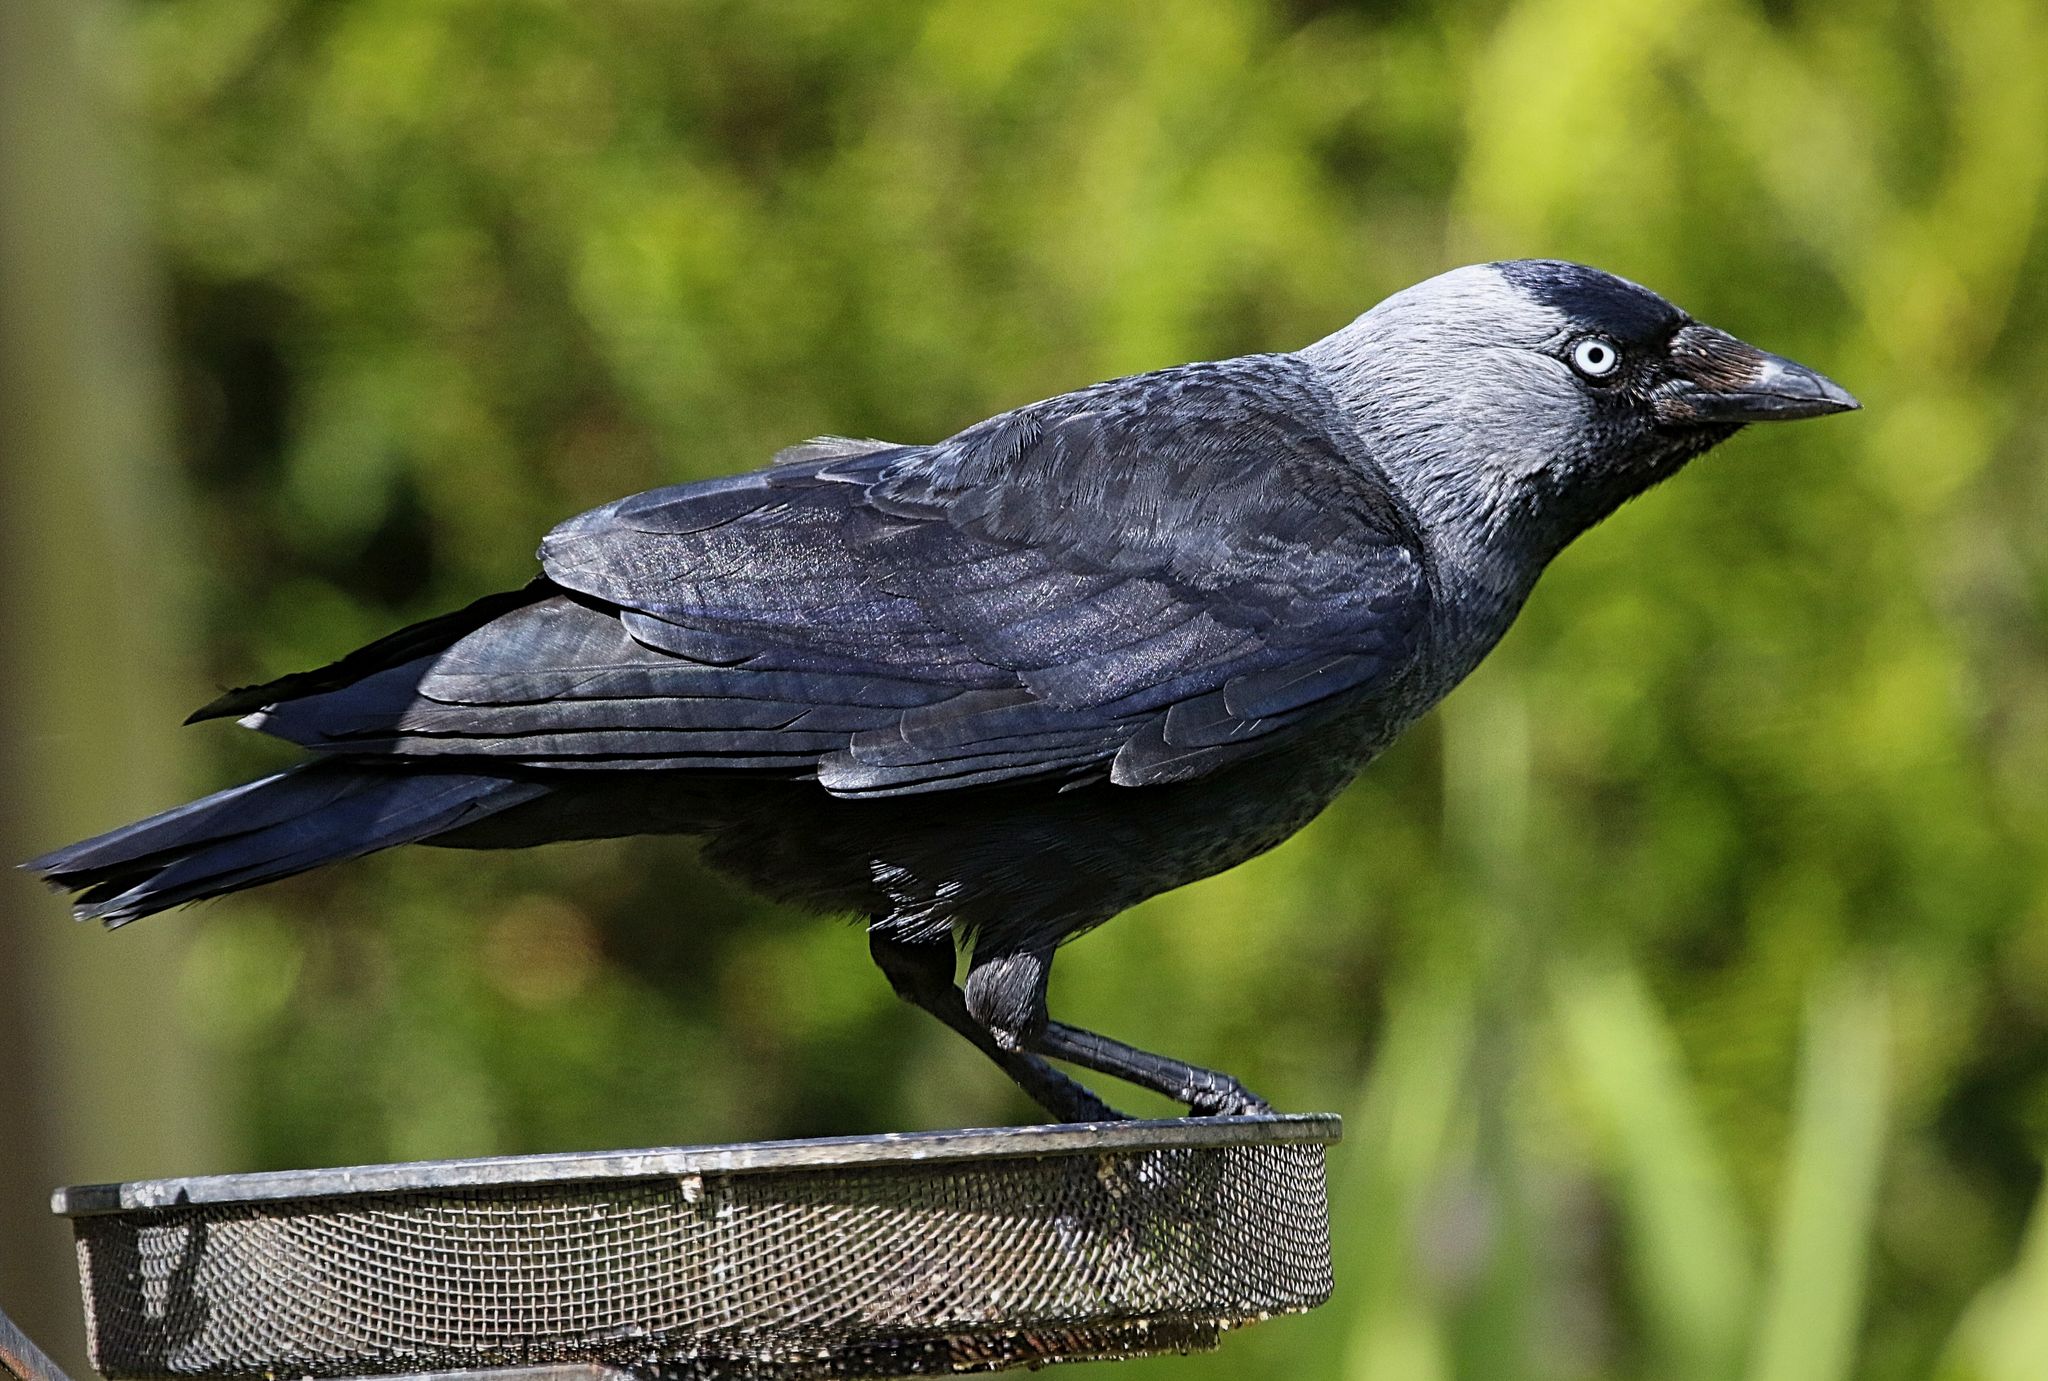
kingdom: Animalia
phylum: Chordata
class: Aves
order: Passeriformes
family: Corvidae
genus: Coloeus
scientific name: Coloeus monedula
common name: Western jackdaw
